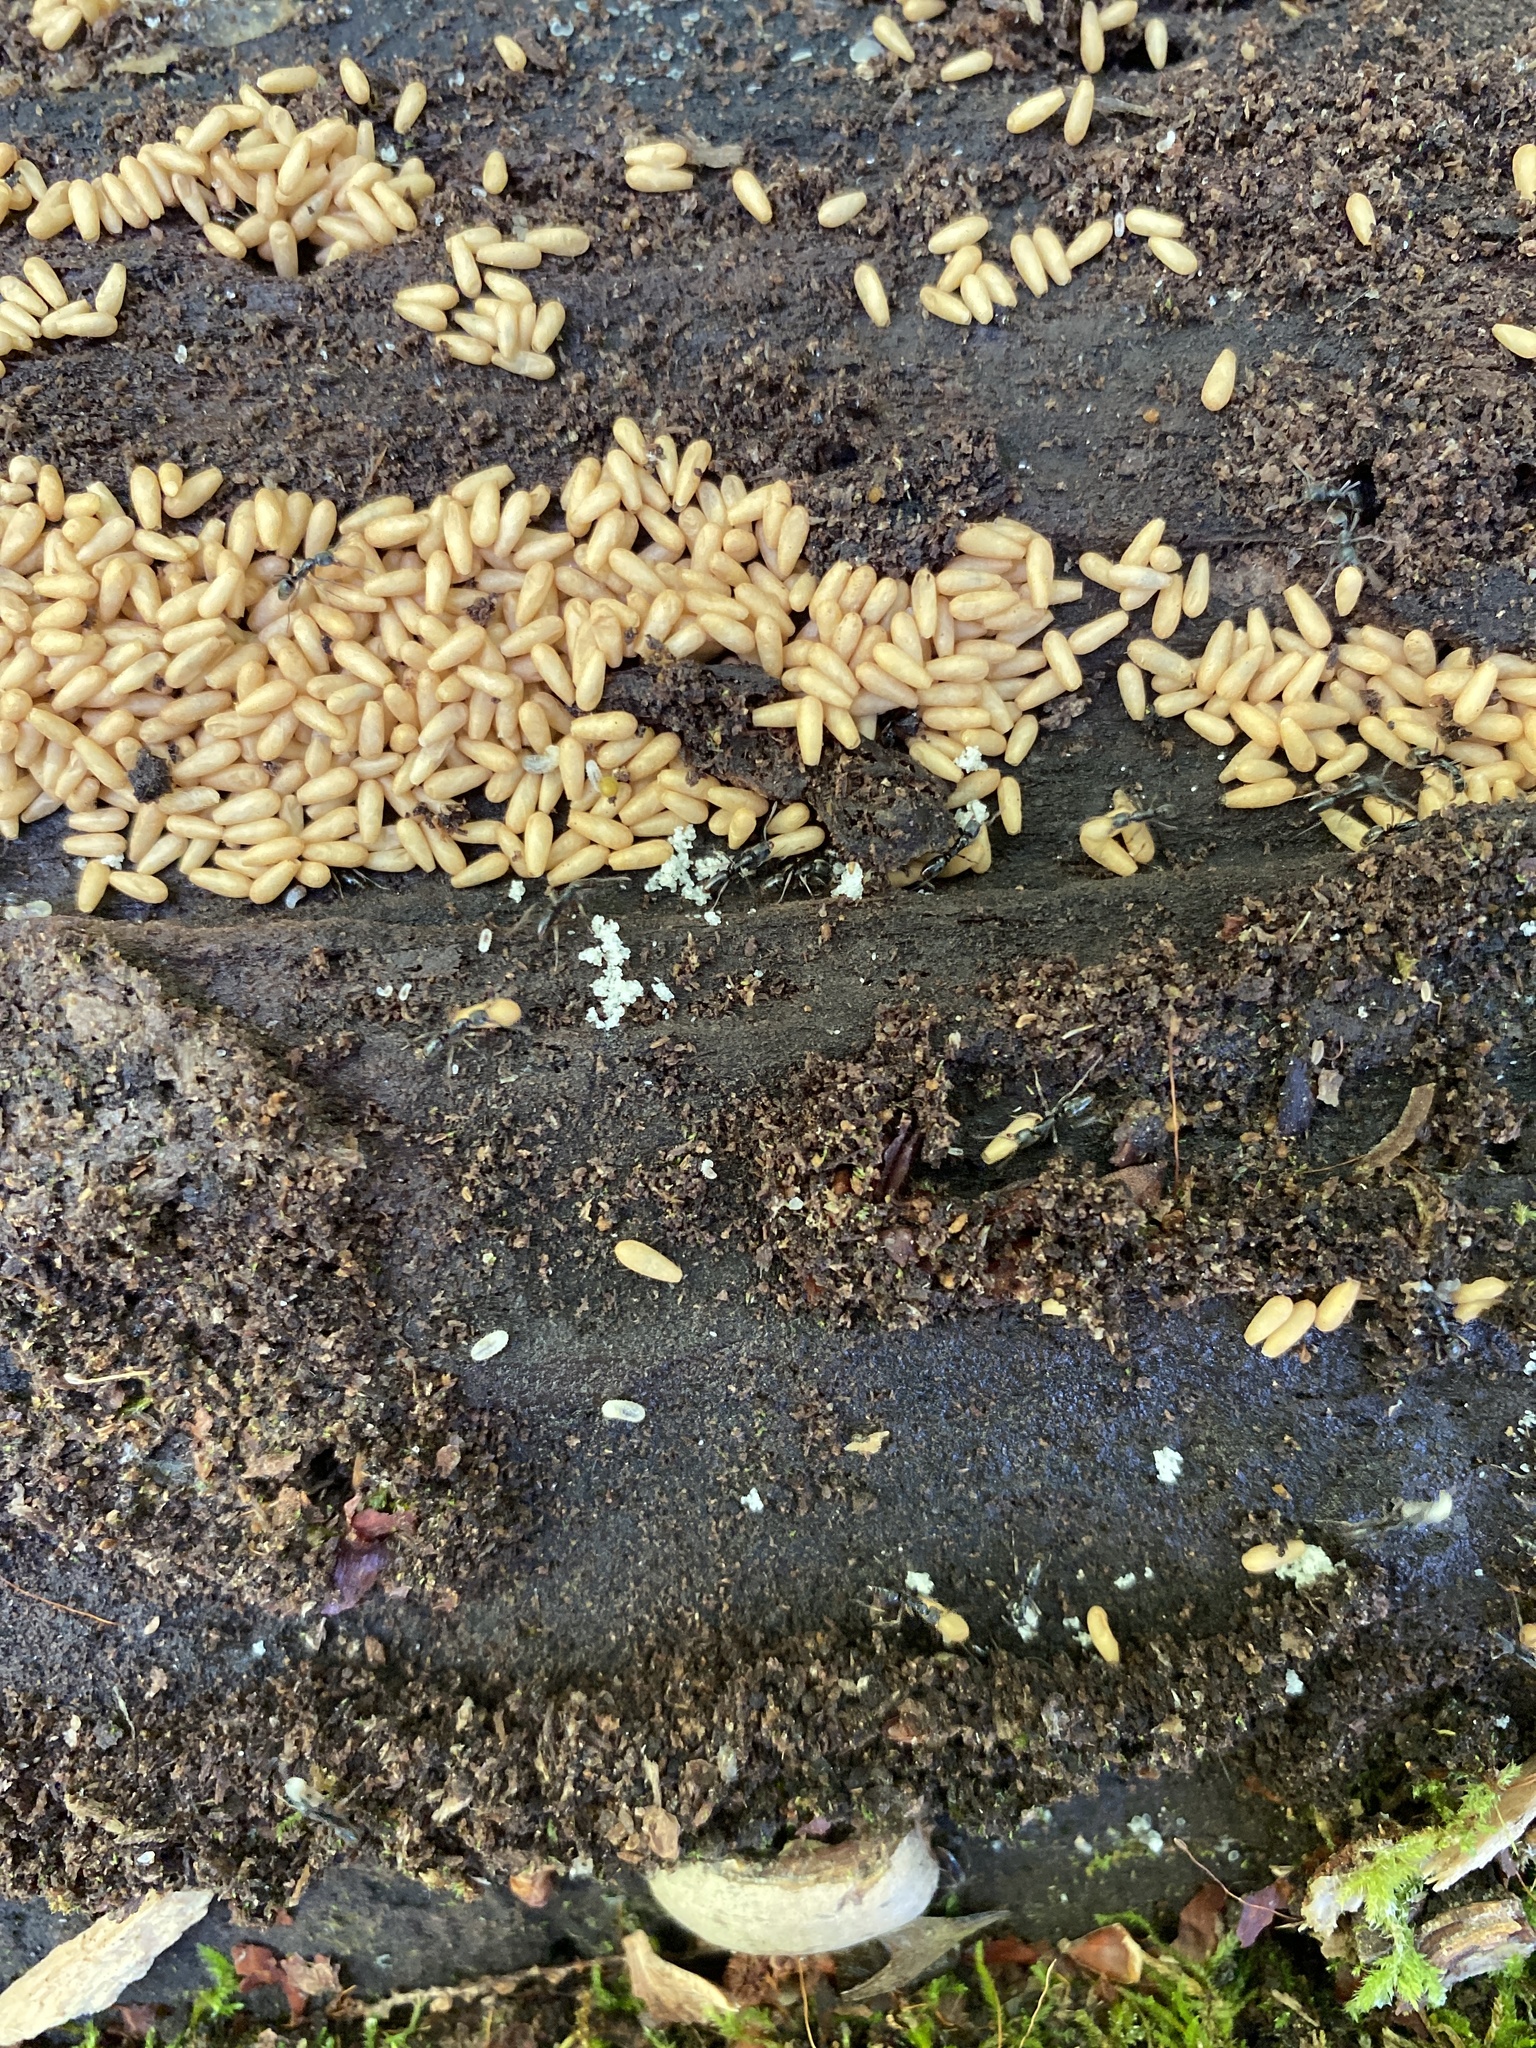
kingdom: Animalia
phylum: Arthropoda
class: Insecta
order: Hymenoptera
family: Formicidae
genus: Pachycondyla
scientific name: Pachycondyla chinensis
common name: Asian needle ant
